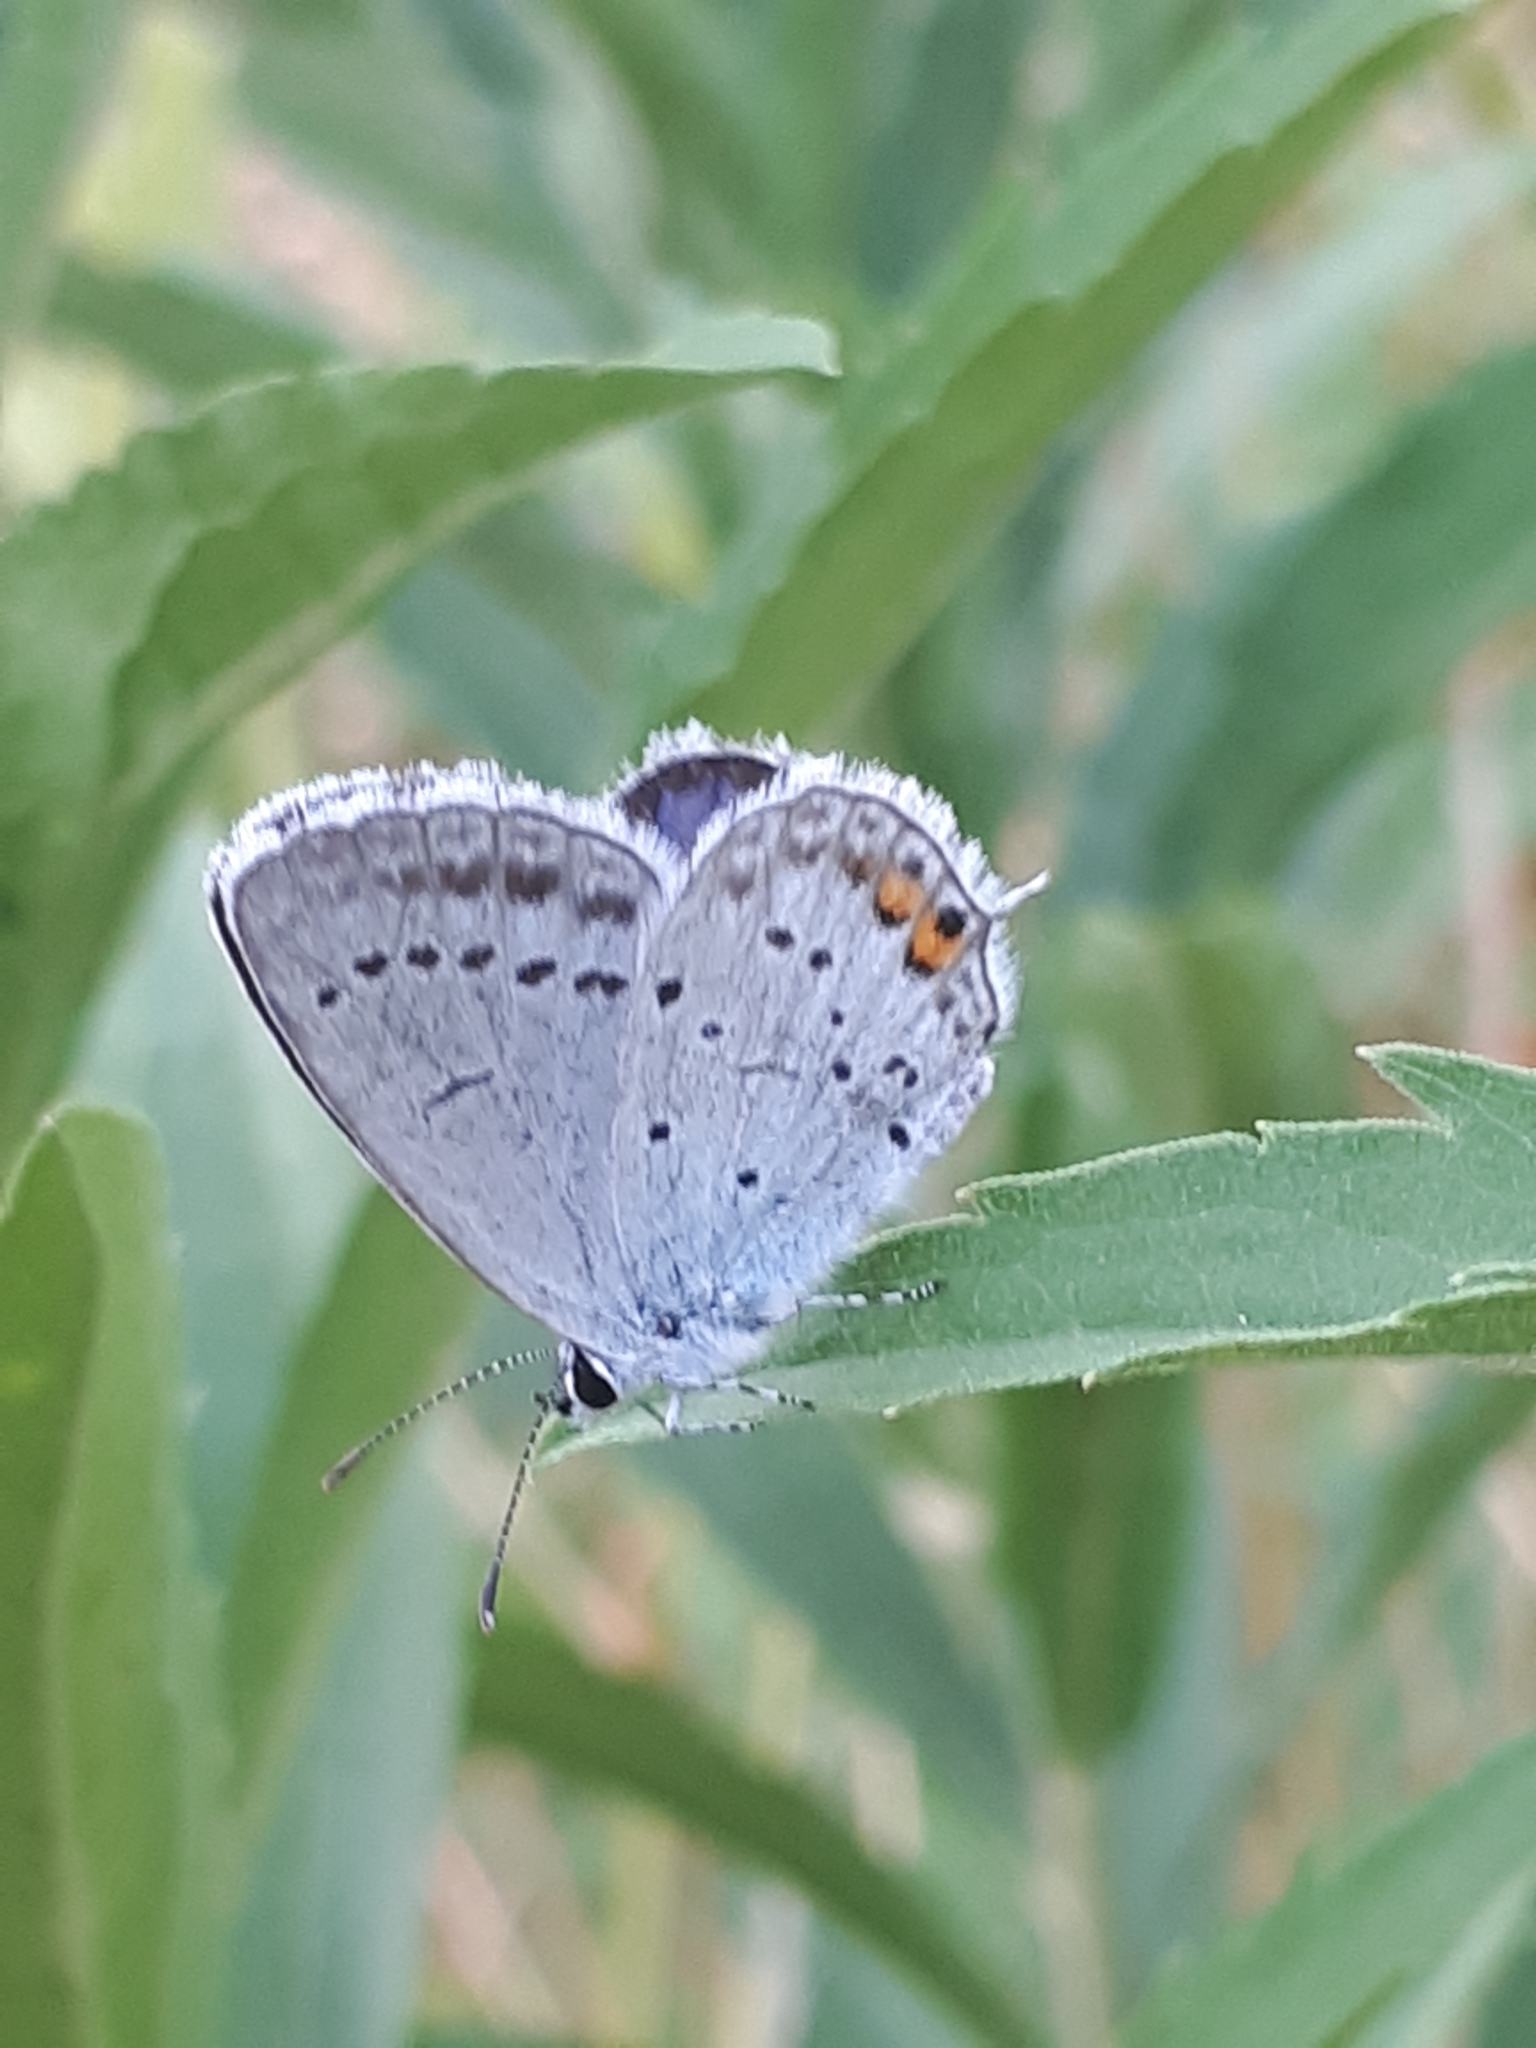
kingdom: Animalia
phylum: Arthropoda
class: Insecta
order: Lepidoptera
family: Lycaenidae
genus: Elkalyce
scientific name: Elkalyce argiades
